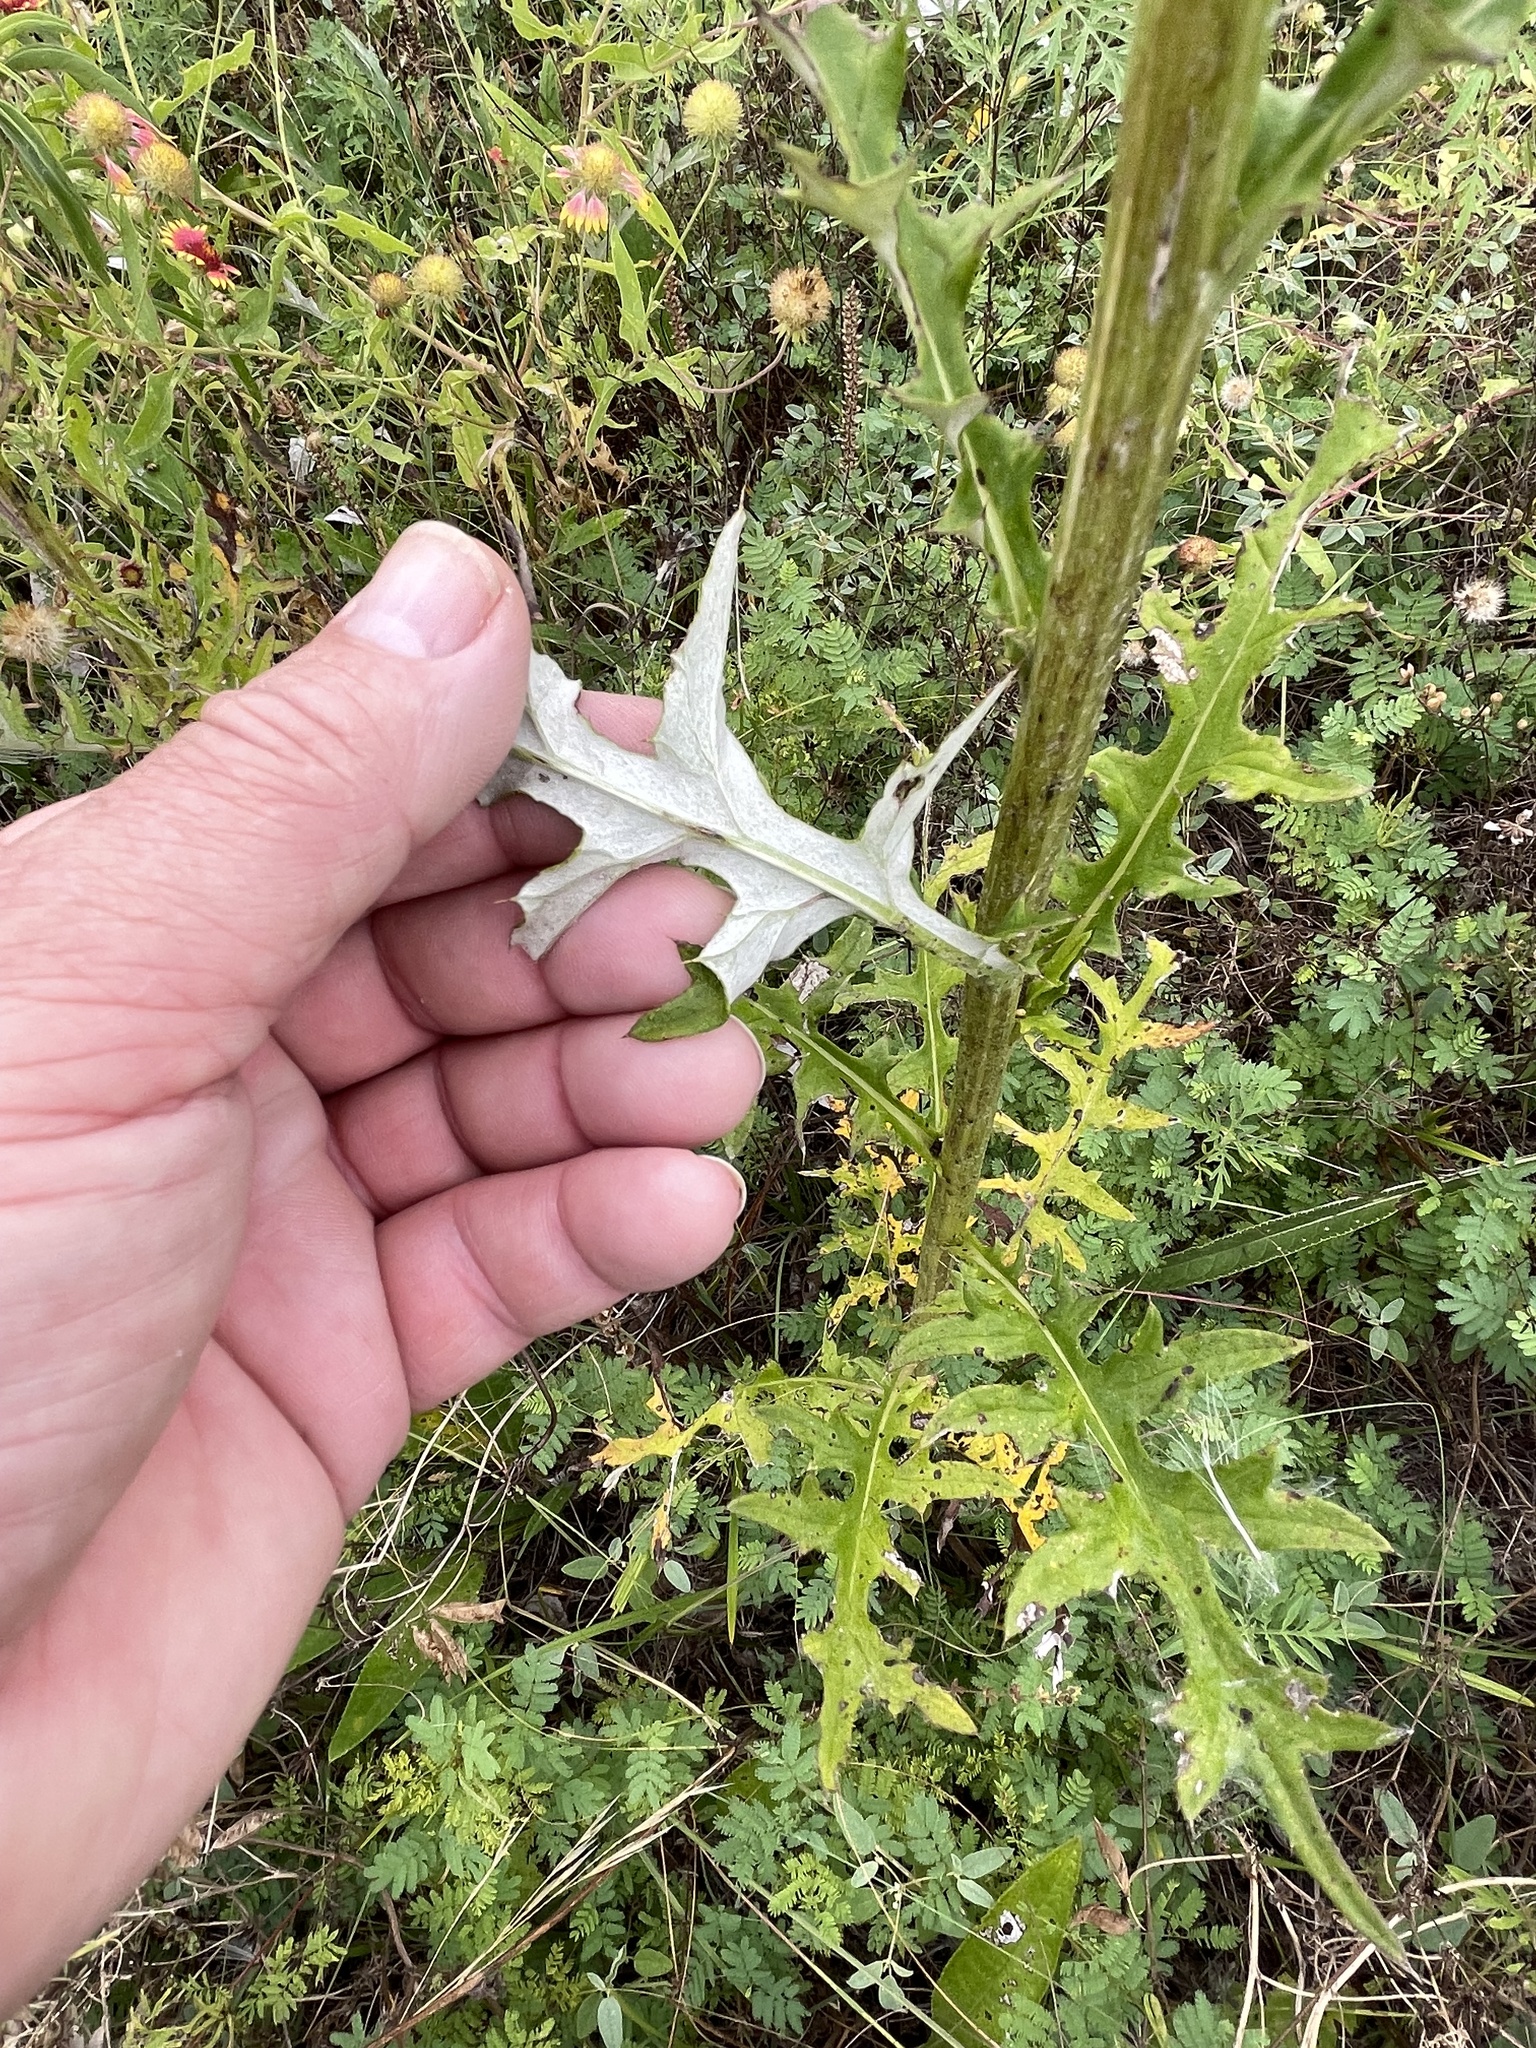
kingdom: Plantae
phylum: Tracheophyta
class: Magnoliopsida
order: Asterales
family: Asteraceae
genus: Cirsium
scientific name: Cirsium engelmannii
